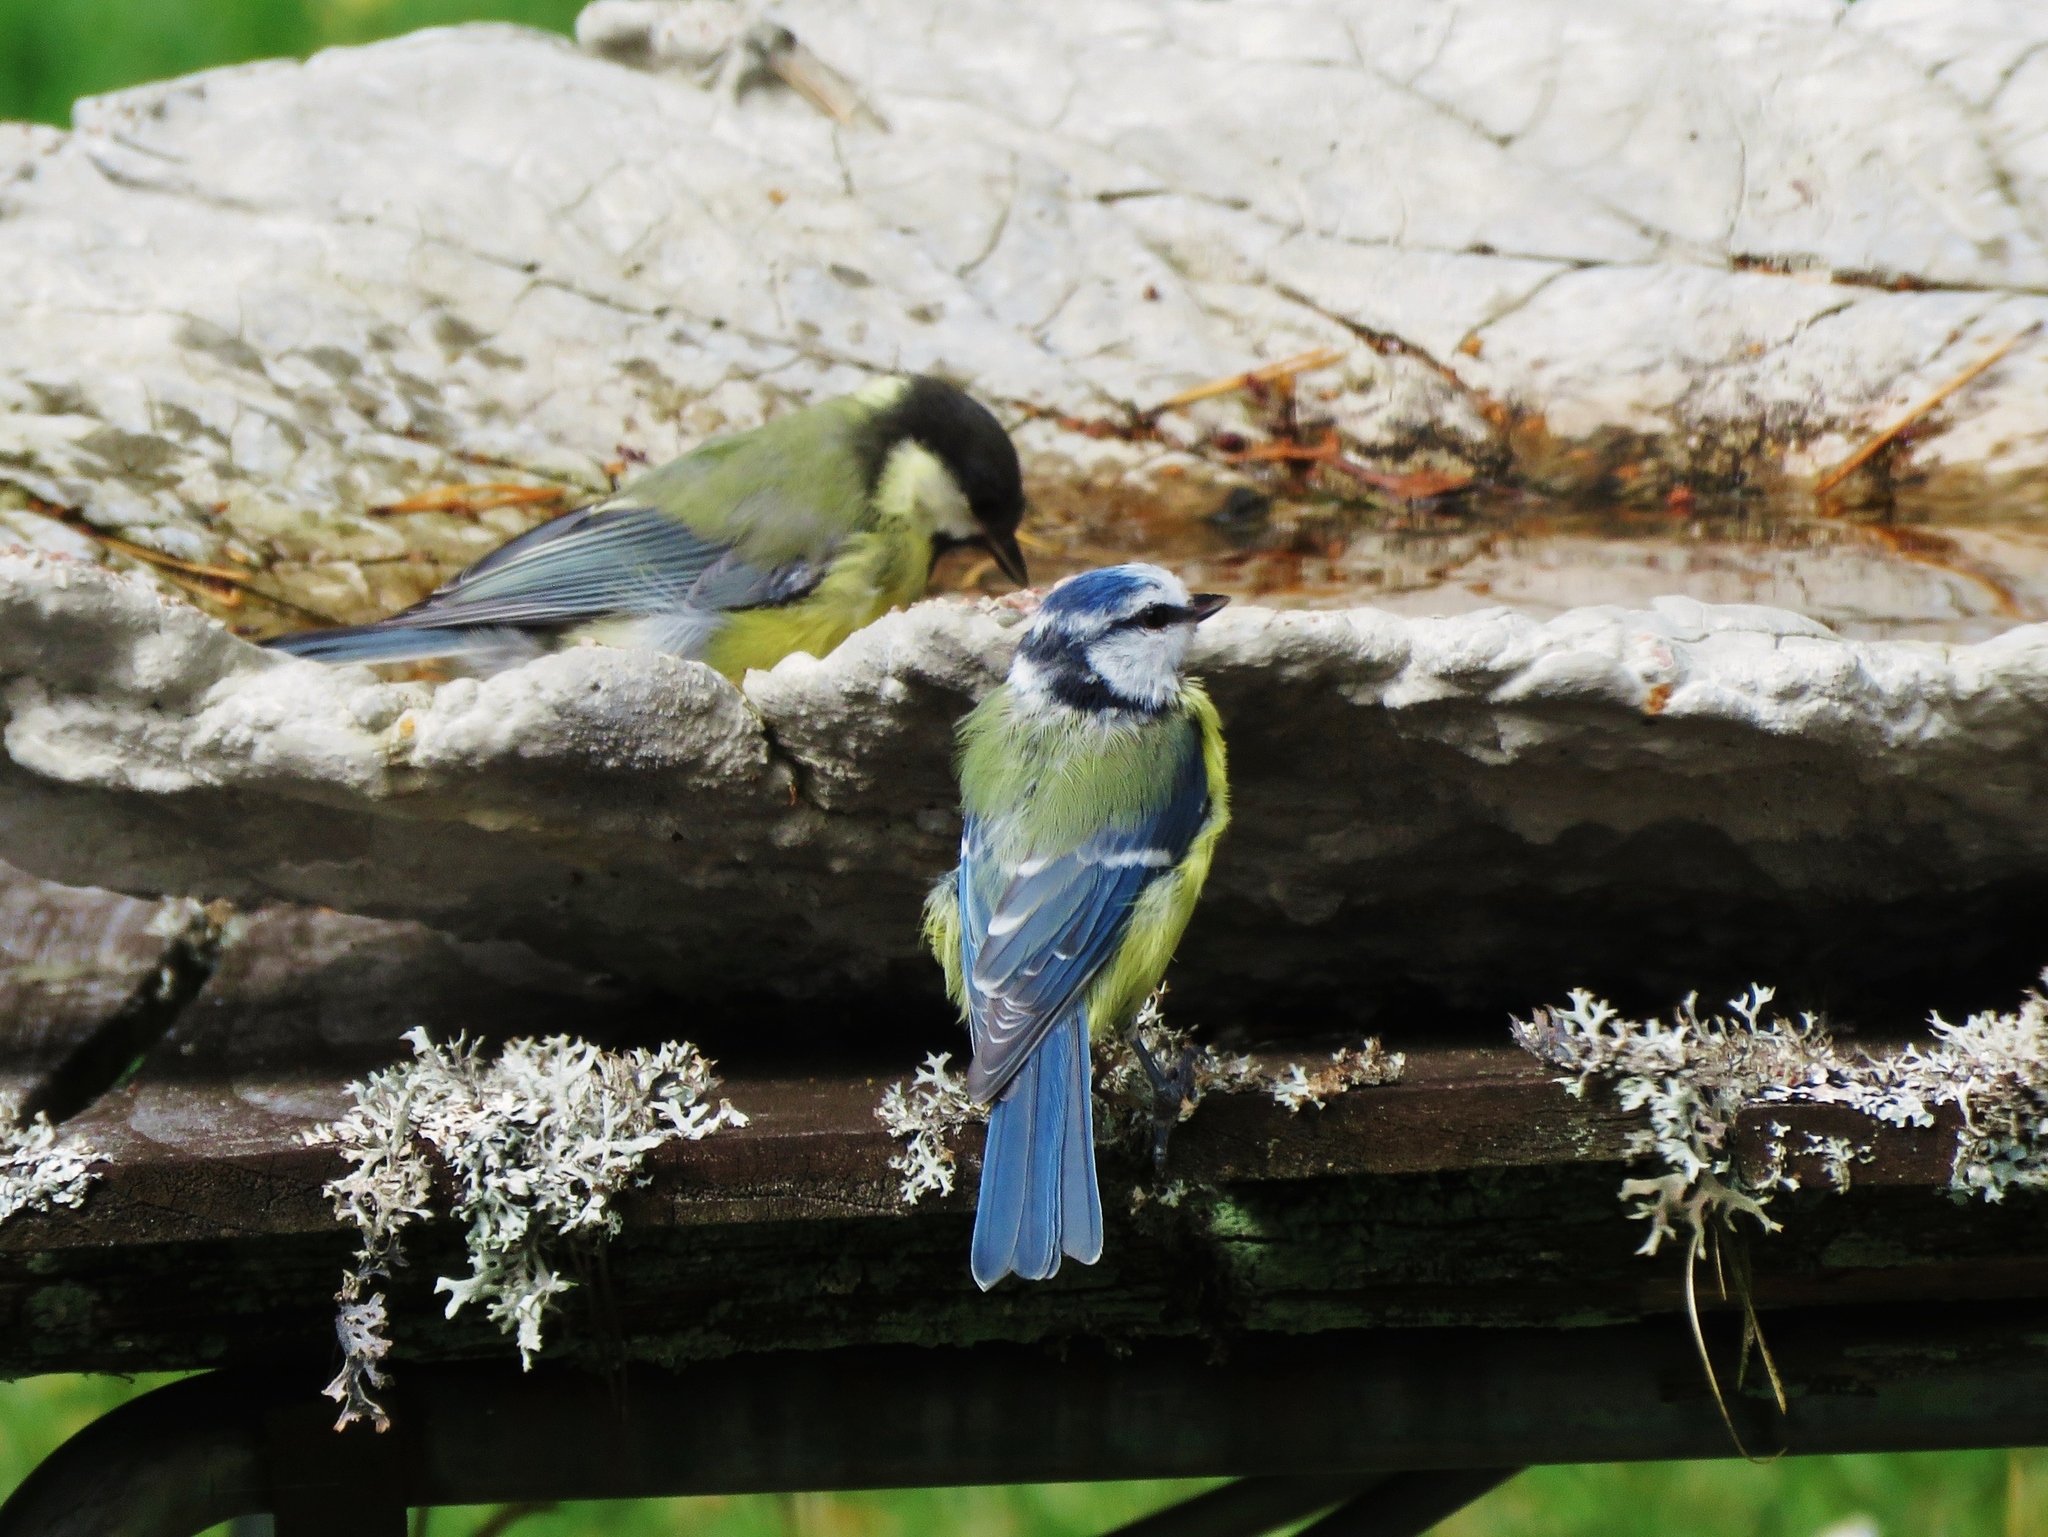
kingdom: Animalia
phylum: Chordata
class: Aves
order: Passeriformes
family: Paridae
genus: Cyanistes
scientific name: Cyanistes caeruleus
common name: Eurasian blue tit
